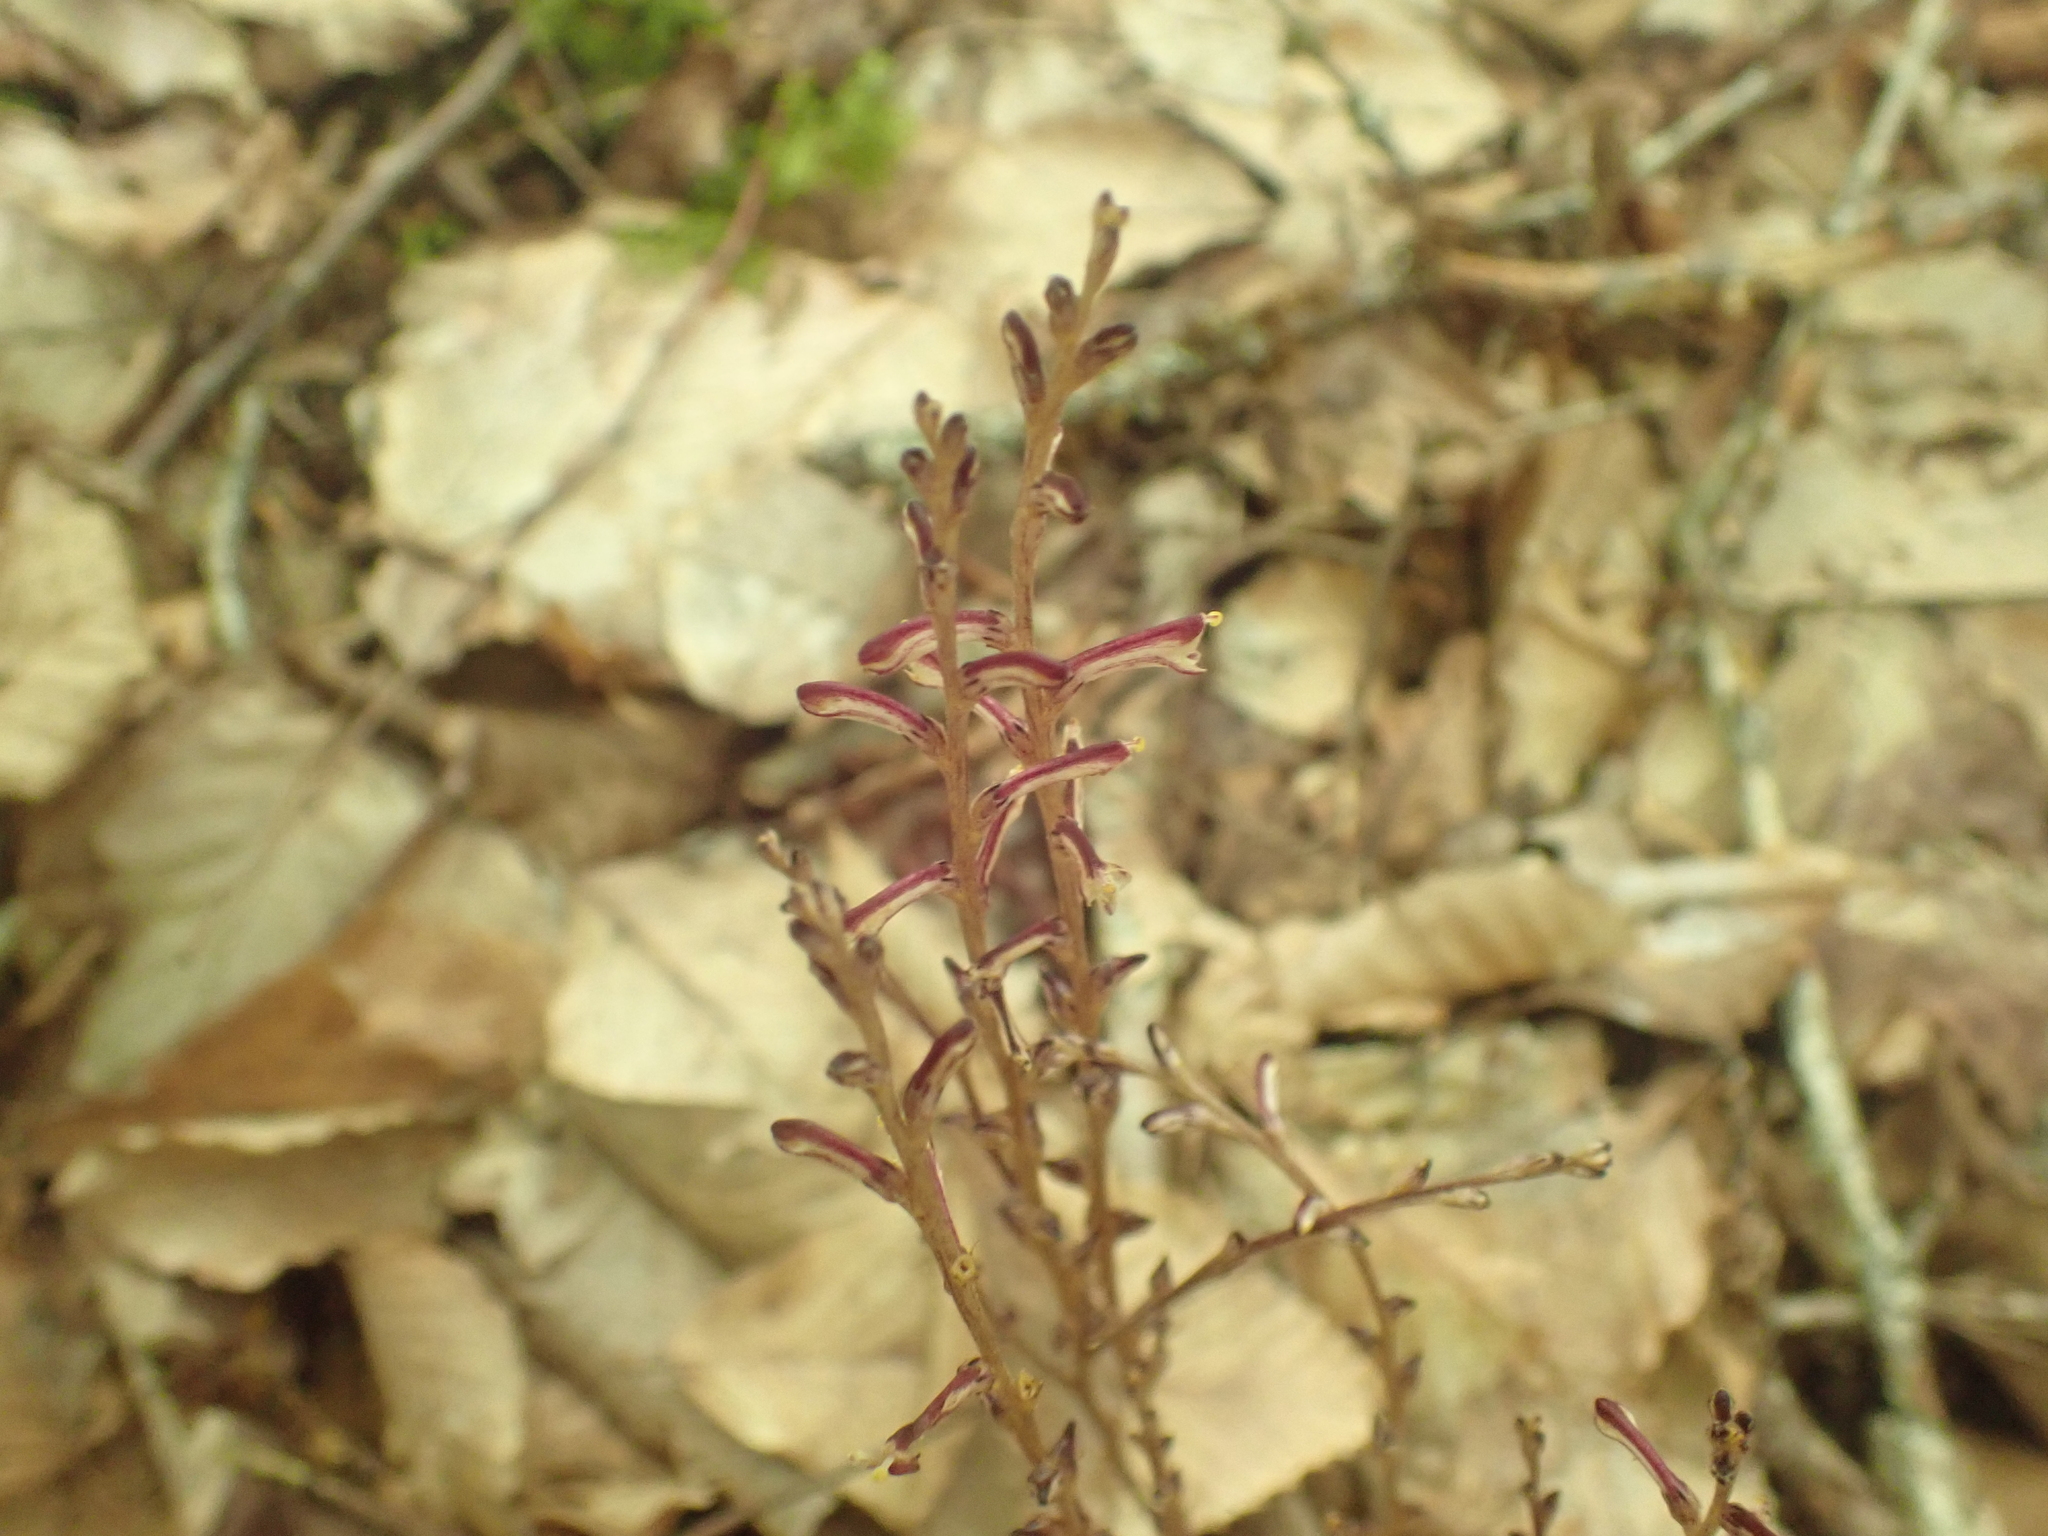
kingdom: Plantae
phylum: Tracheophyta
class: Magnoliopsida
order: Lamiales
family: Orobanchaceae
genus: Epifagus
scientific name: Epifagus virginiana
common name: Beechdrops
